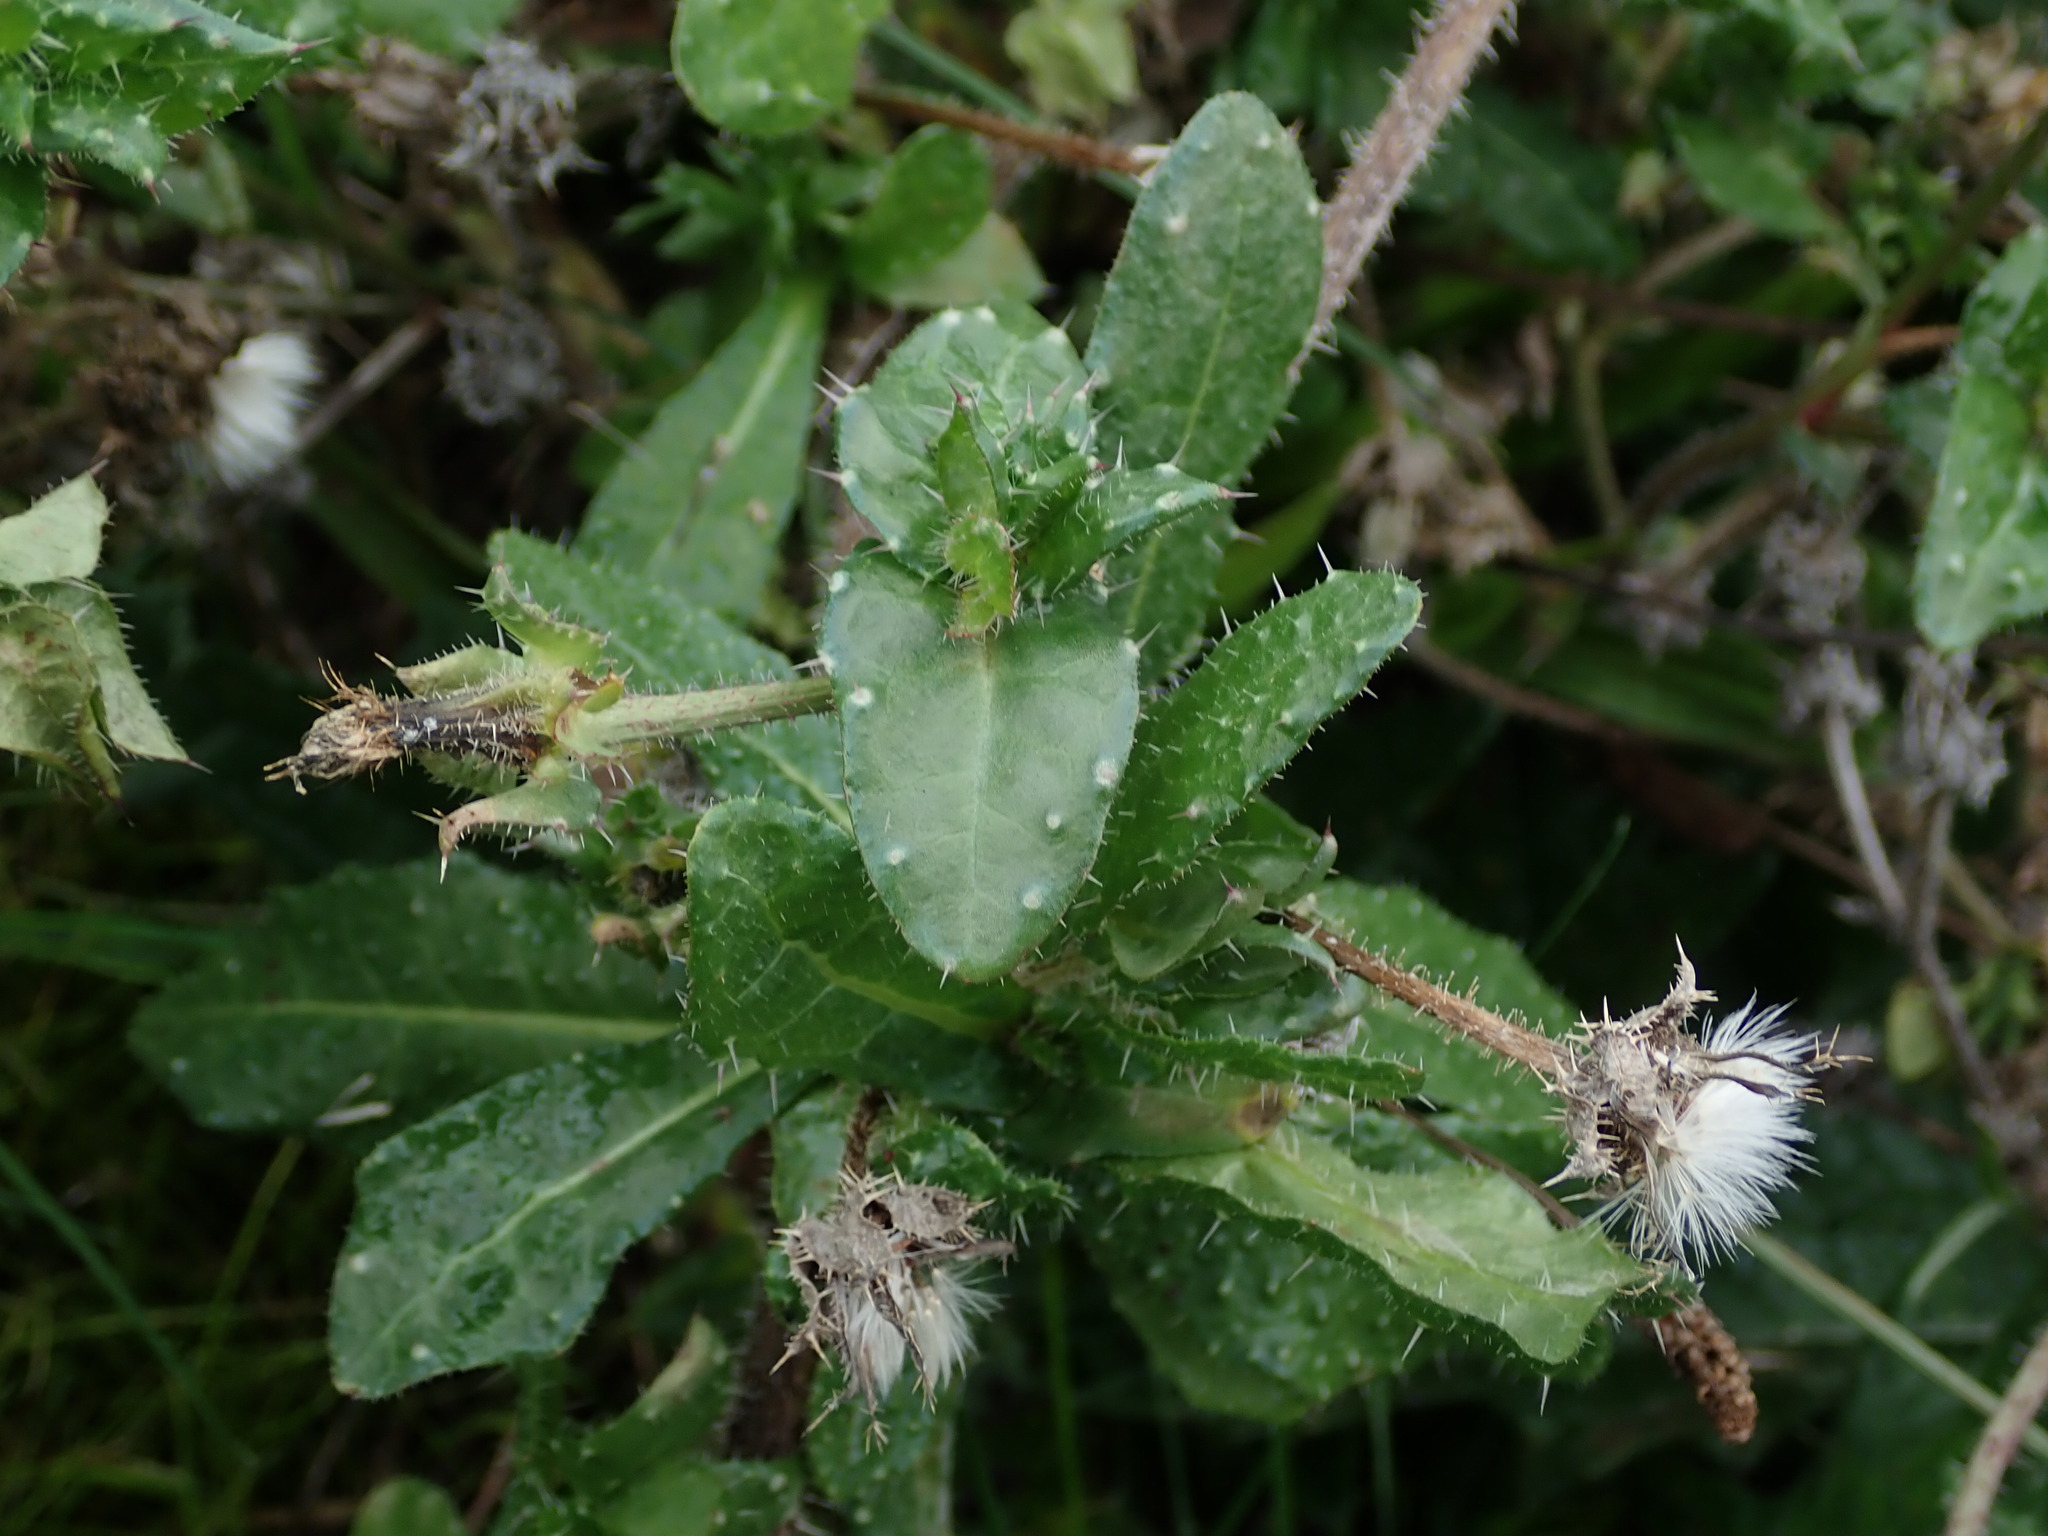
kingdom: Plantae
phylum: Tracheophyta
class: Magnoliopsida
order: Asterales
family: Asteraceae
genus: Helminthotheca
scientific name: Helminthotheca echioides
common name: Ox-tongue
